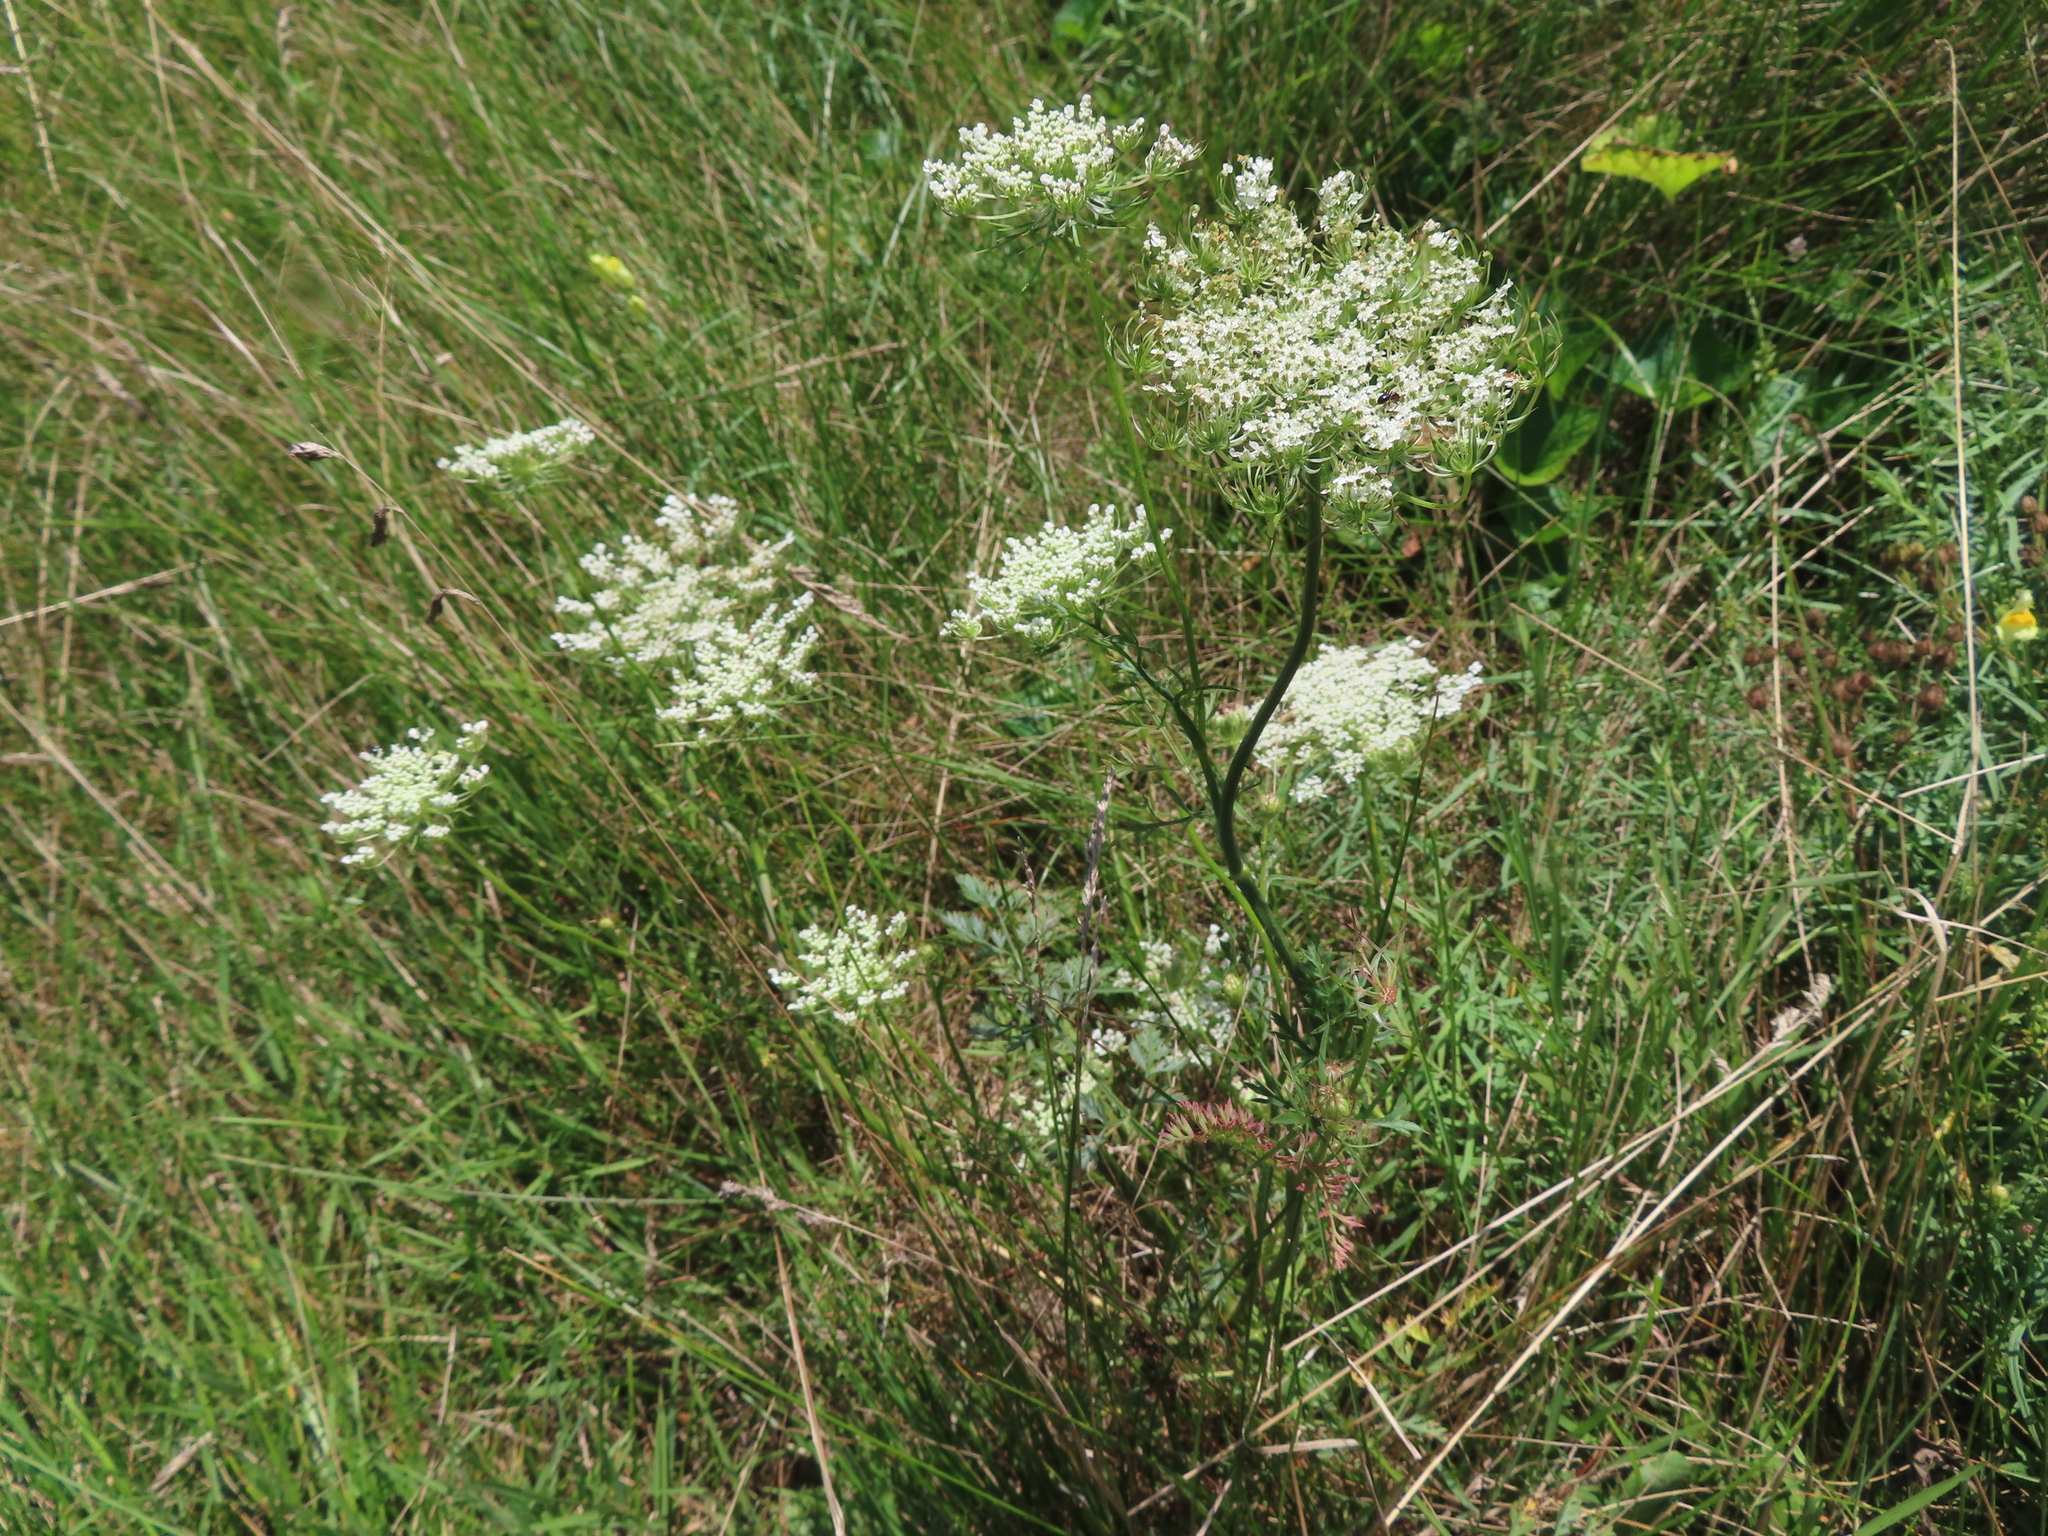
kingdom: Plantae
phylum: Tracheophyta
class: Magnoliopsida
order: Apiales
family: Apiaceae
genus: Daucus
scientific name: Daucus carota
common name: Wild carrot
